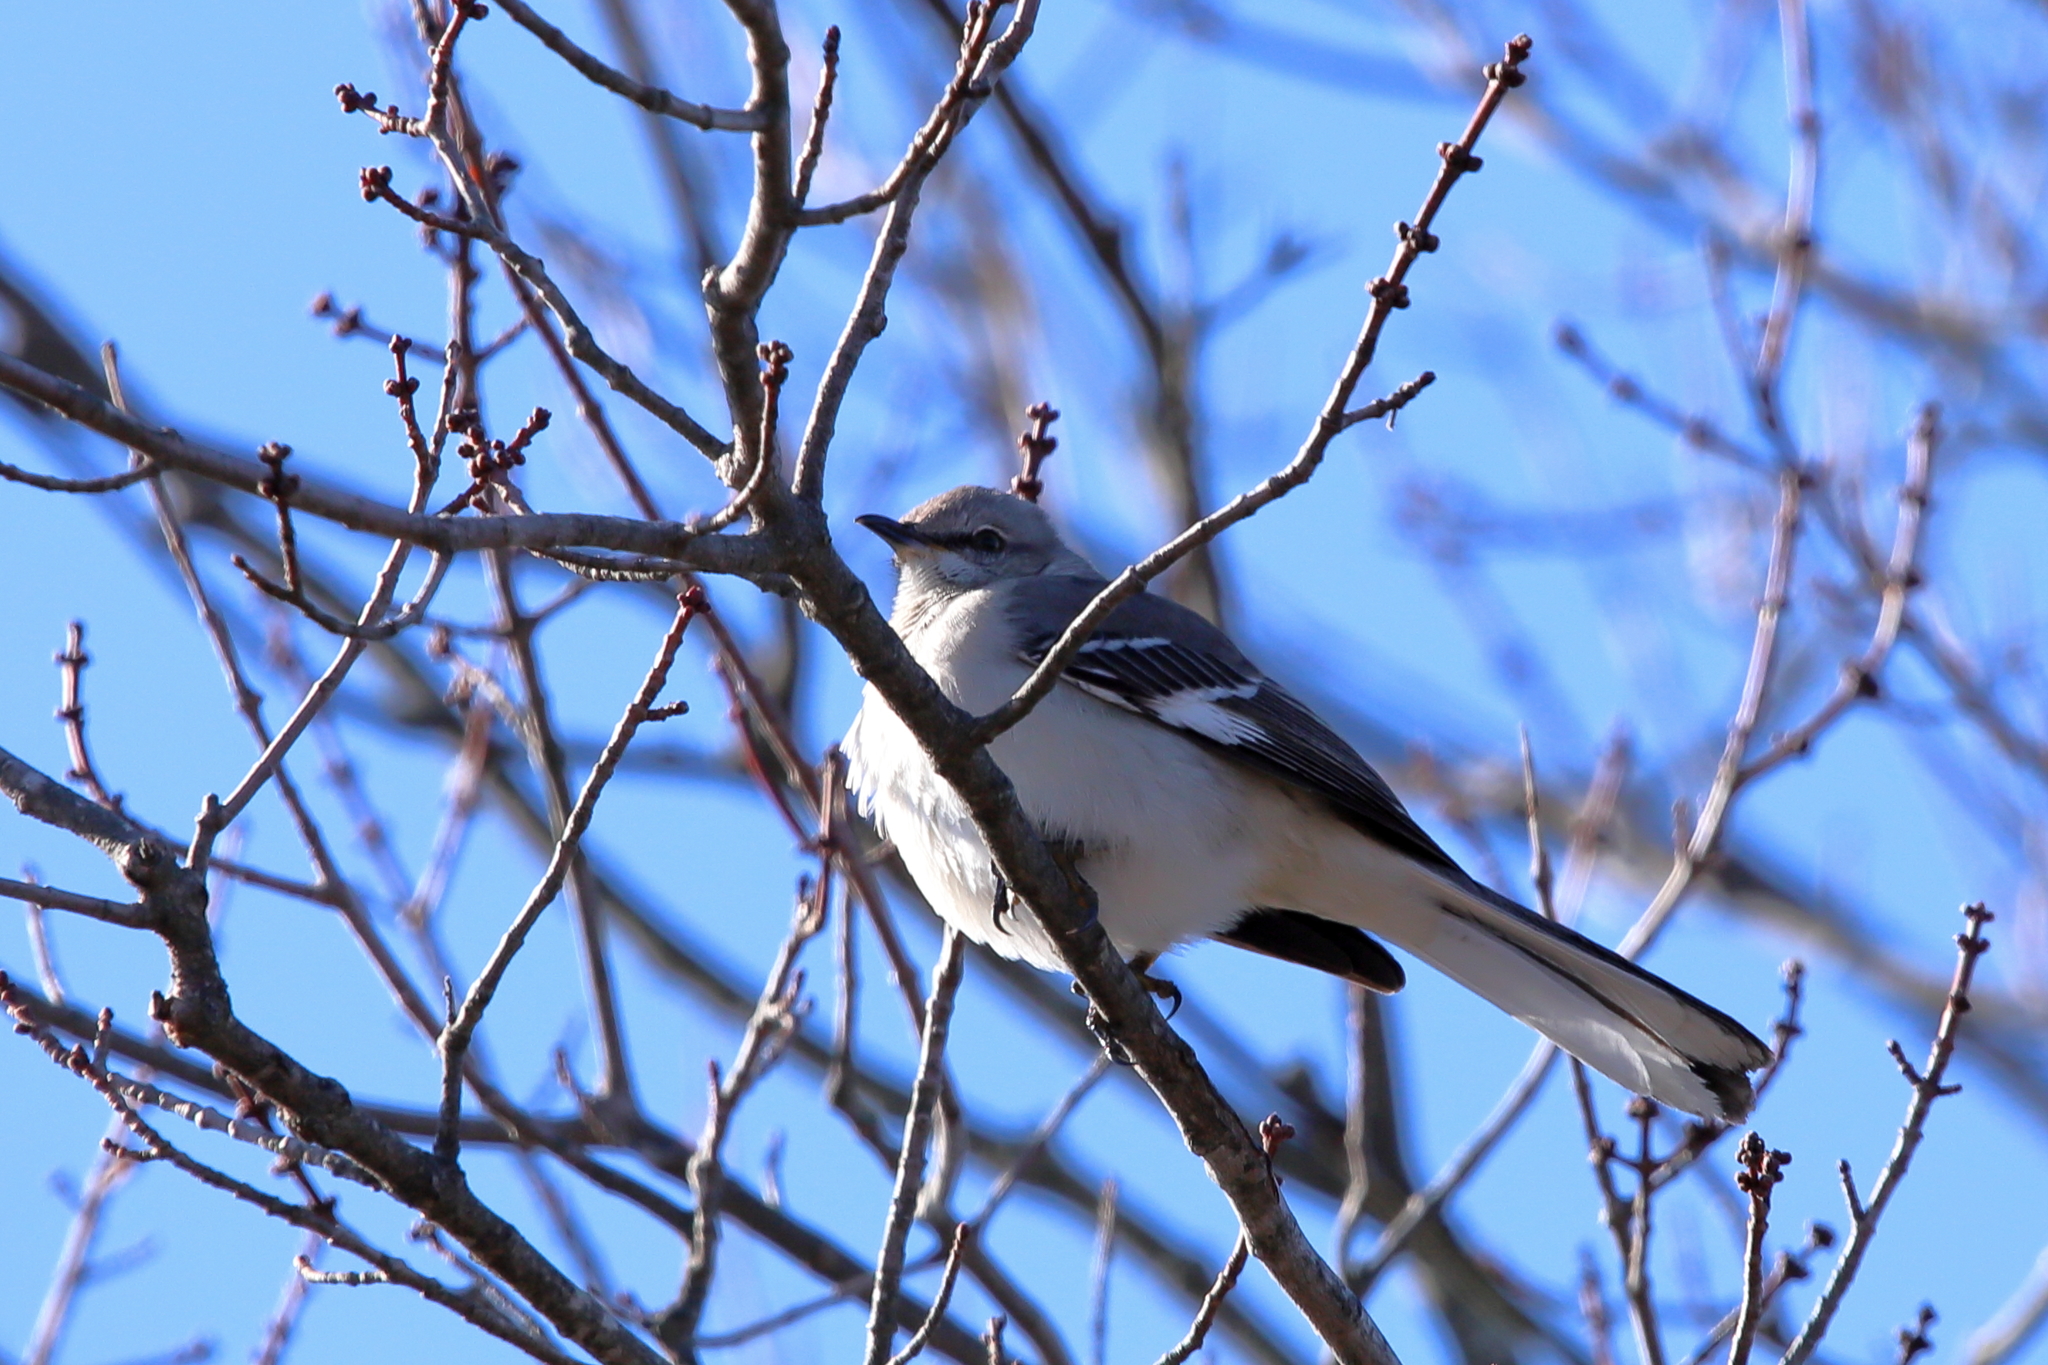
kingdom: Animalia
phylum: Chordata
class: Aves
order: Passeriformes
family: Mimidae
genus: Mimus
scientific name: Mimus polyglottos
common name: Northern mockingbird
